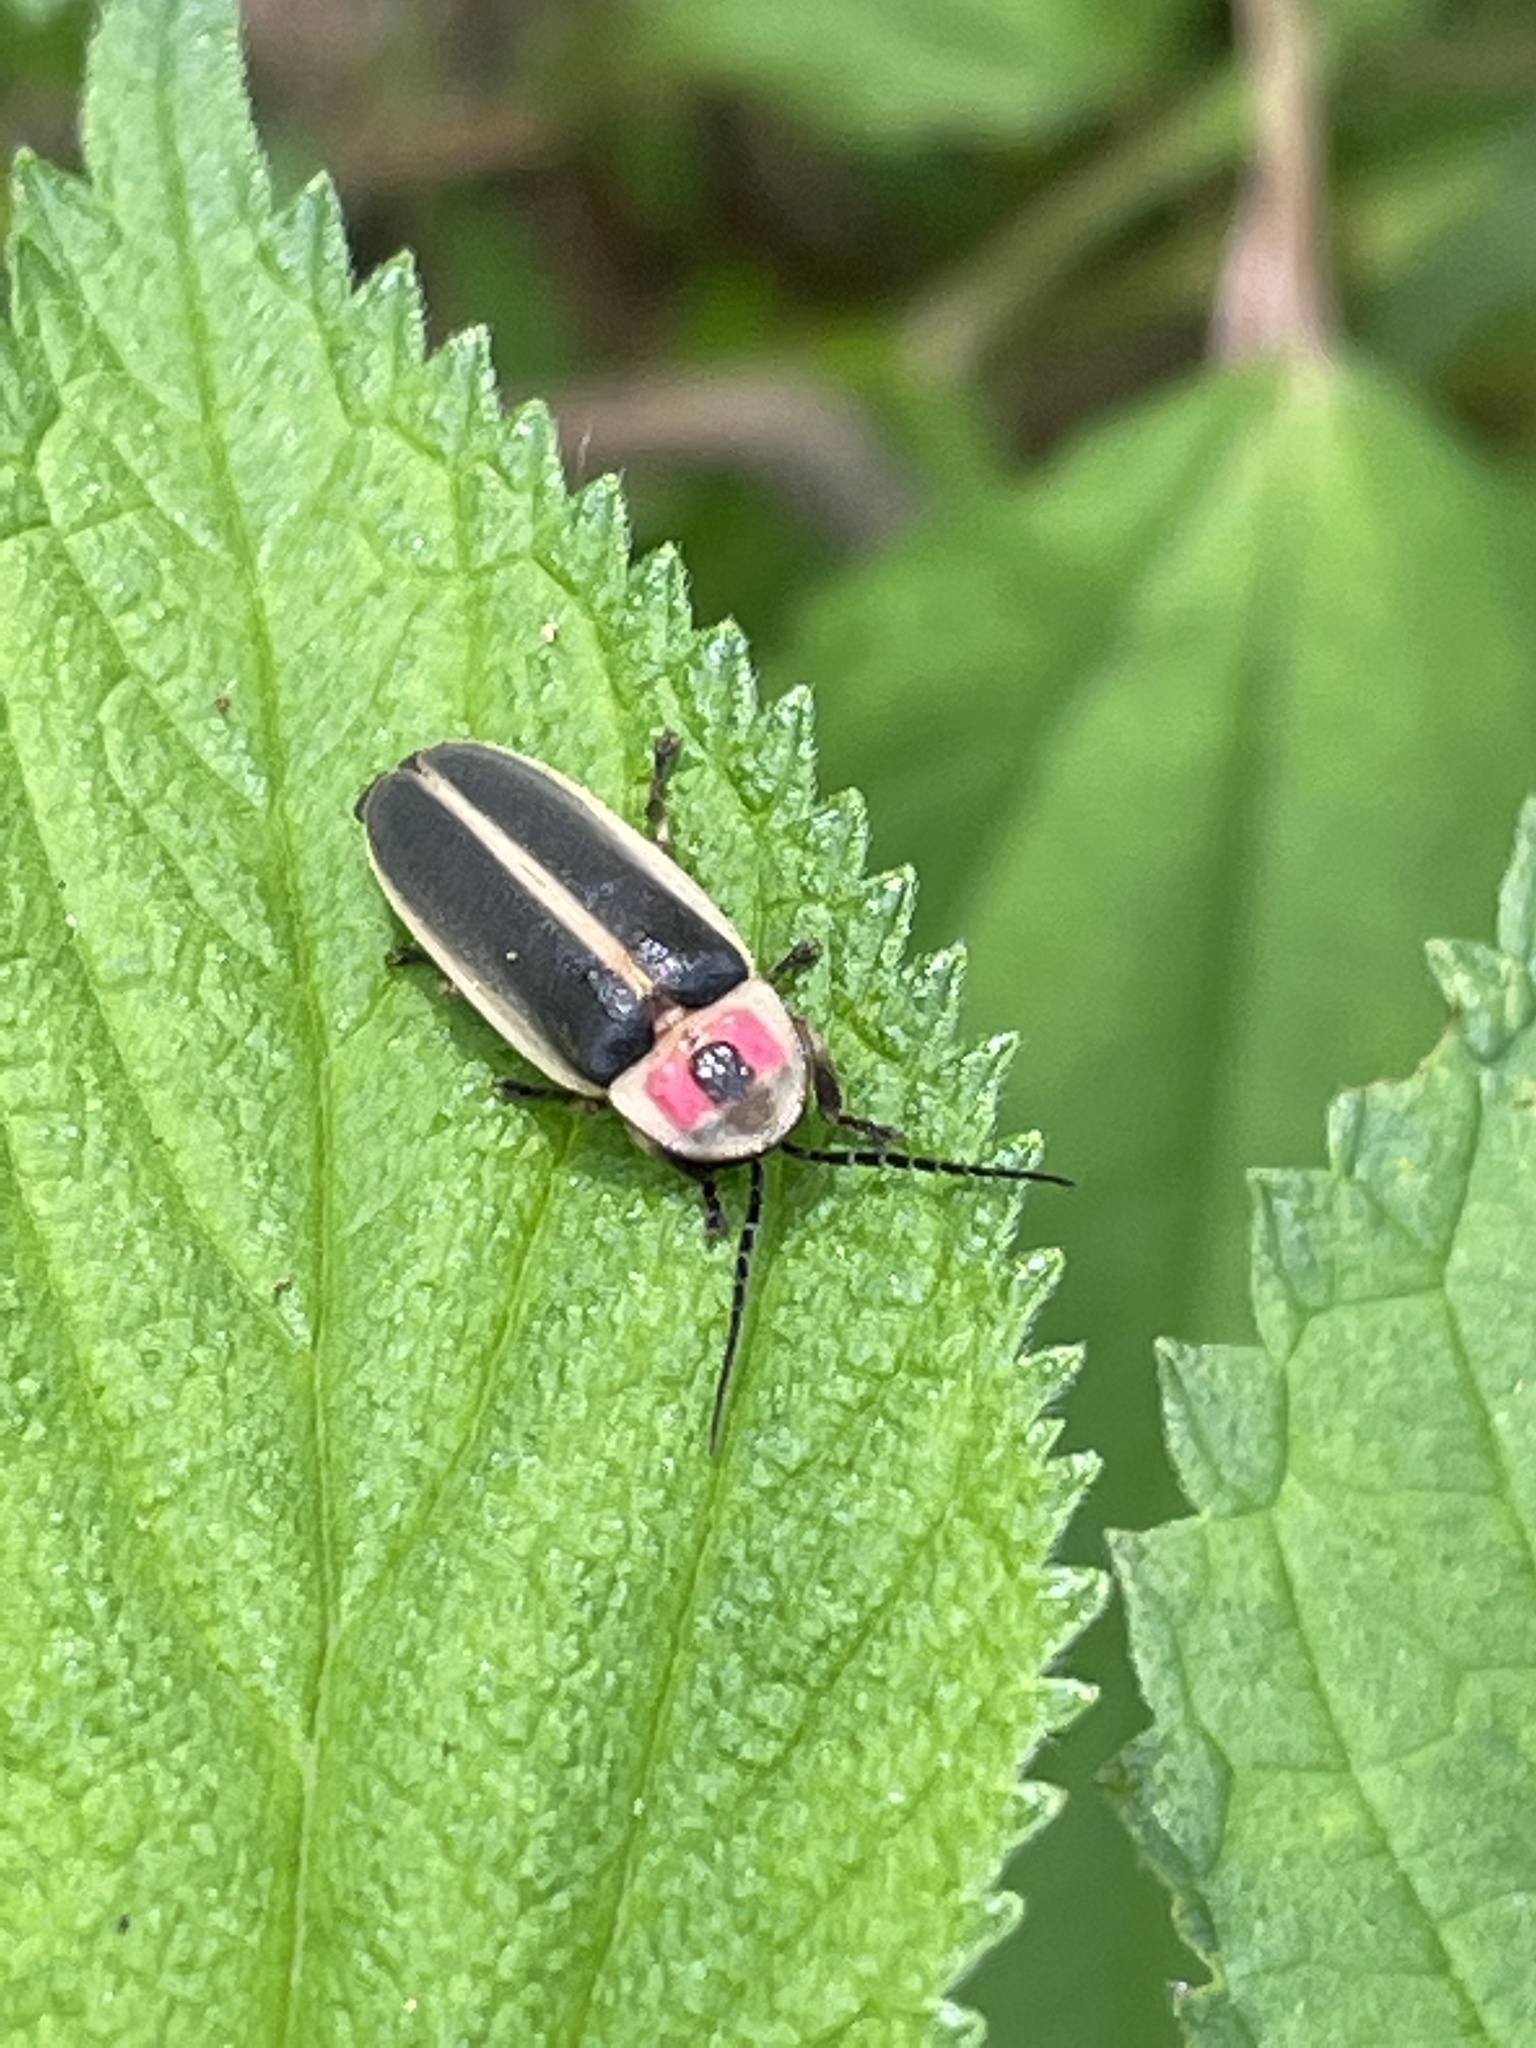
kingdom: Animalia
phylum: Arthropoda
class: Insecta
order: Coleoptera
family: Lampyridae
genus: Photinus
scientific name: Photinus pyralis
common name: Big dipper firefly
